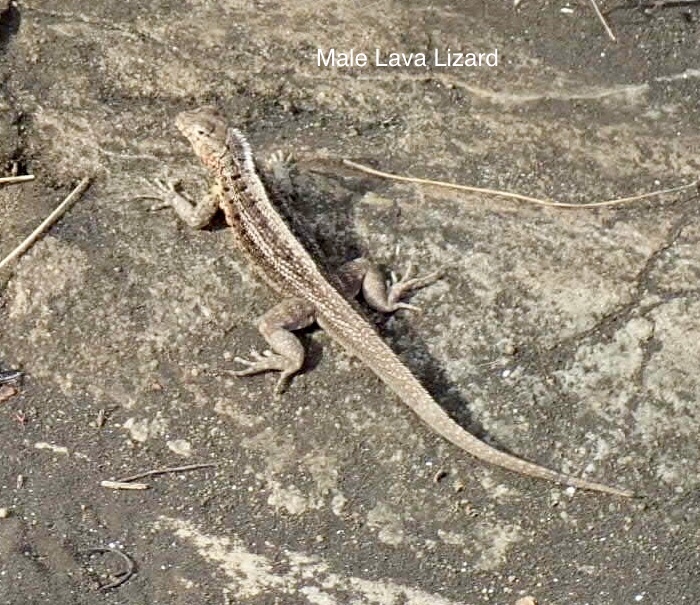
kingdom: Animalia
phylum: Chordata
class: Squamata
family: Tropiduridae
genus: Microlophus
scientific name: Microlophus jacobii
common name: Santiago lava lizard
